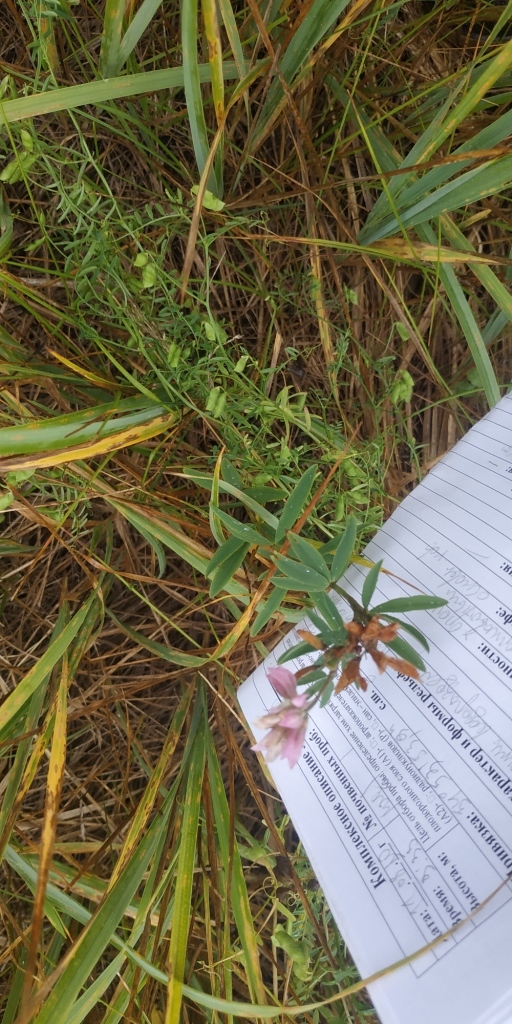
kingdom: Plantae
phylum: Tracheophyta
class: Magnoliopsida
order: Fabales
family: Fabaceae
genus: Trifolium
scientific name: Trifolium lupinaster
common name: Lupine clover
